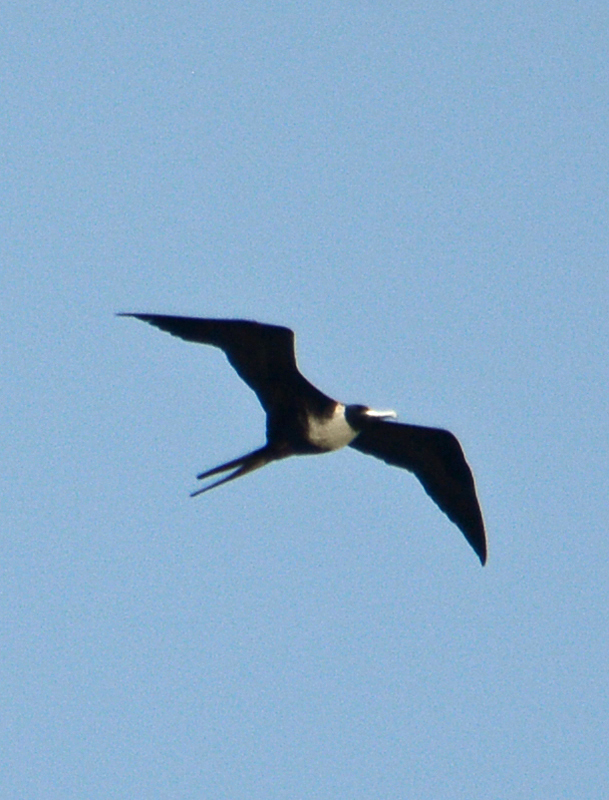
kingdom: Animalia
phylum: Chordata
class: Aves
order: Suliformes
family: Fregatidae
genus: Fregata
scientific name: Fregata magnificens
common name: Magnificent frigatebird
